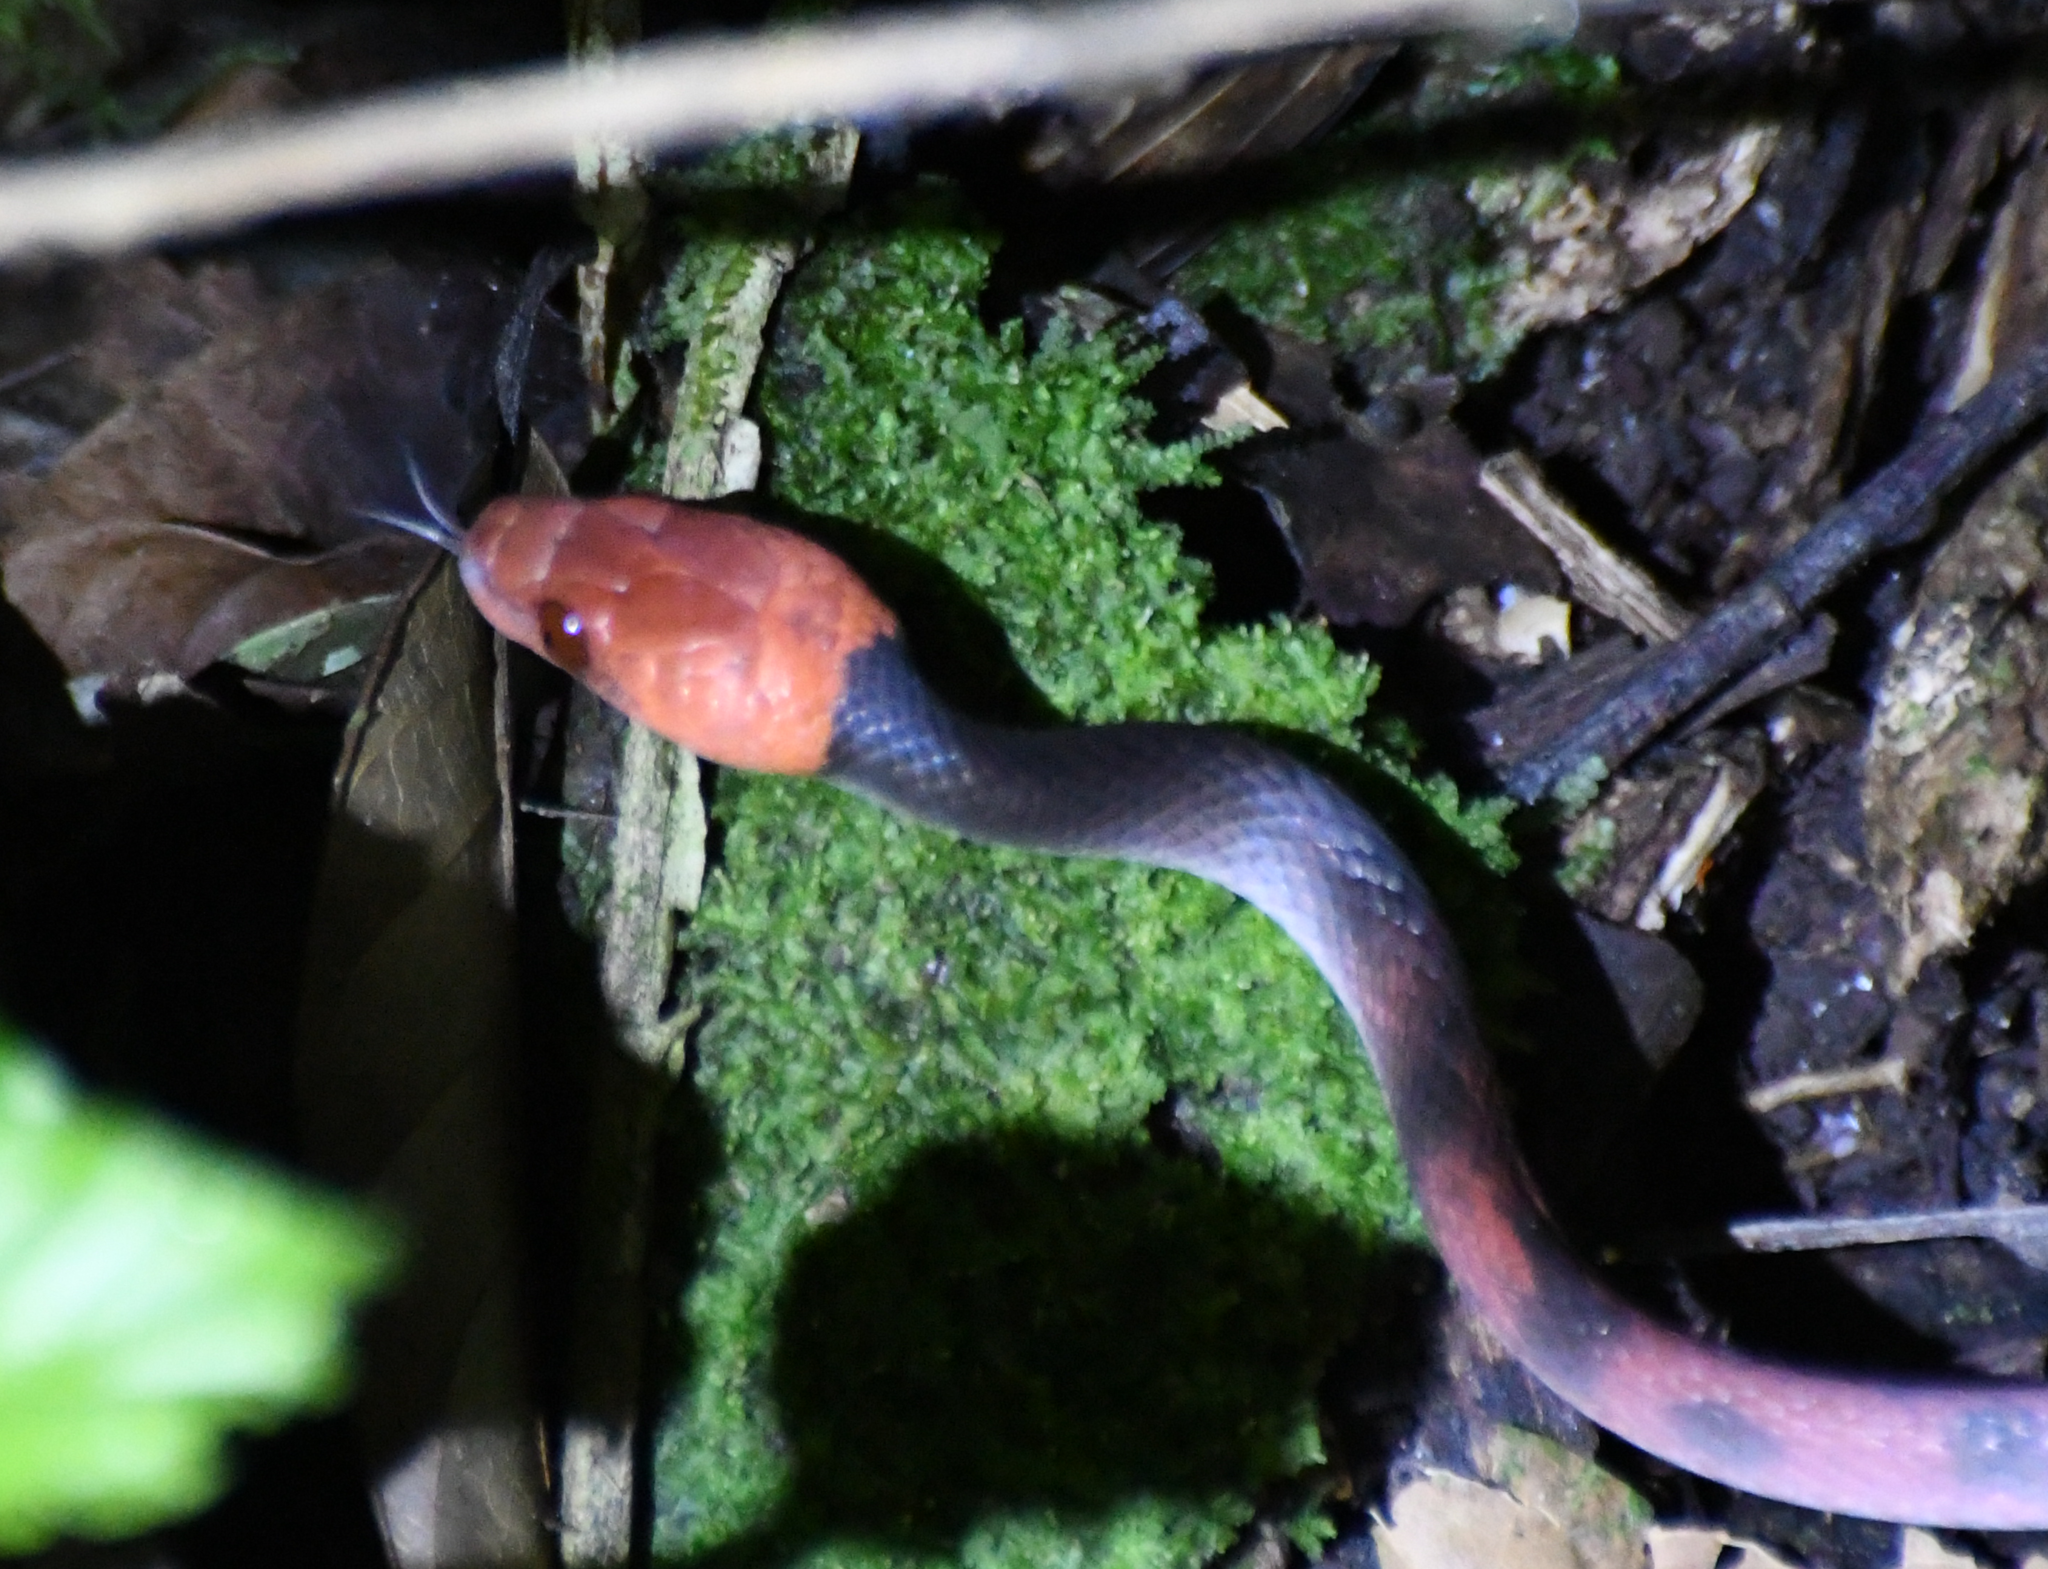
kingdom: Animalia
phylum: Chordata
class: Squamata
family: Colubridae
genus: Siphlophis
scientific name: Siphlophis compressus
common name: Tropical flat snake
